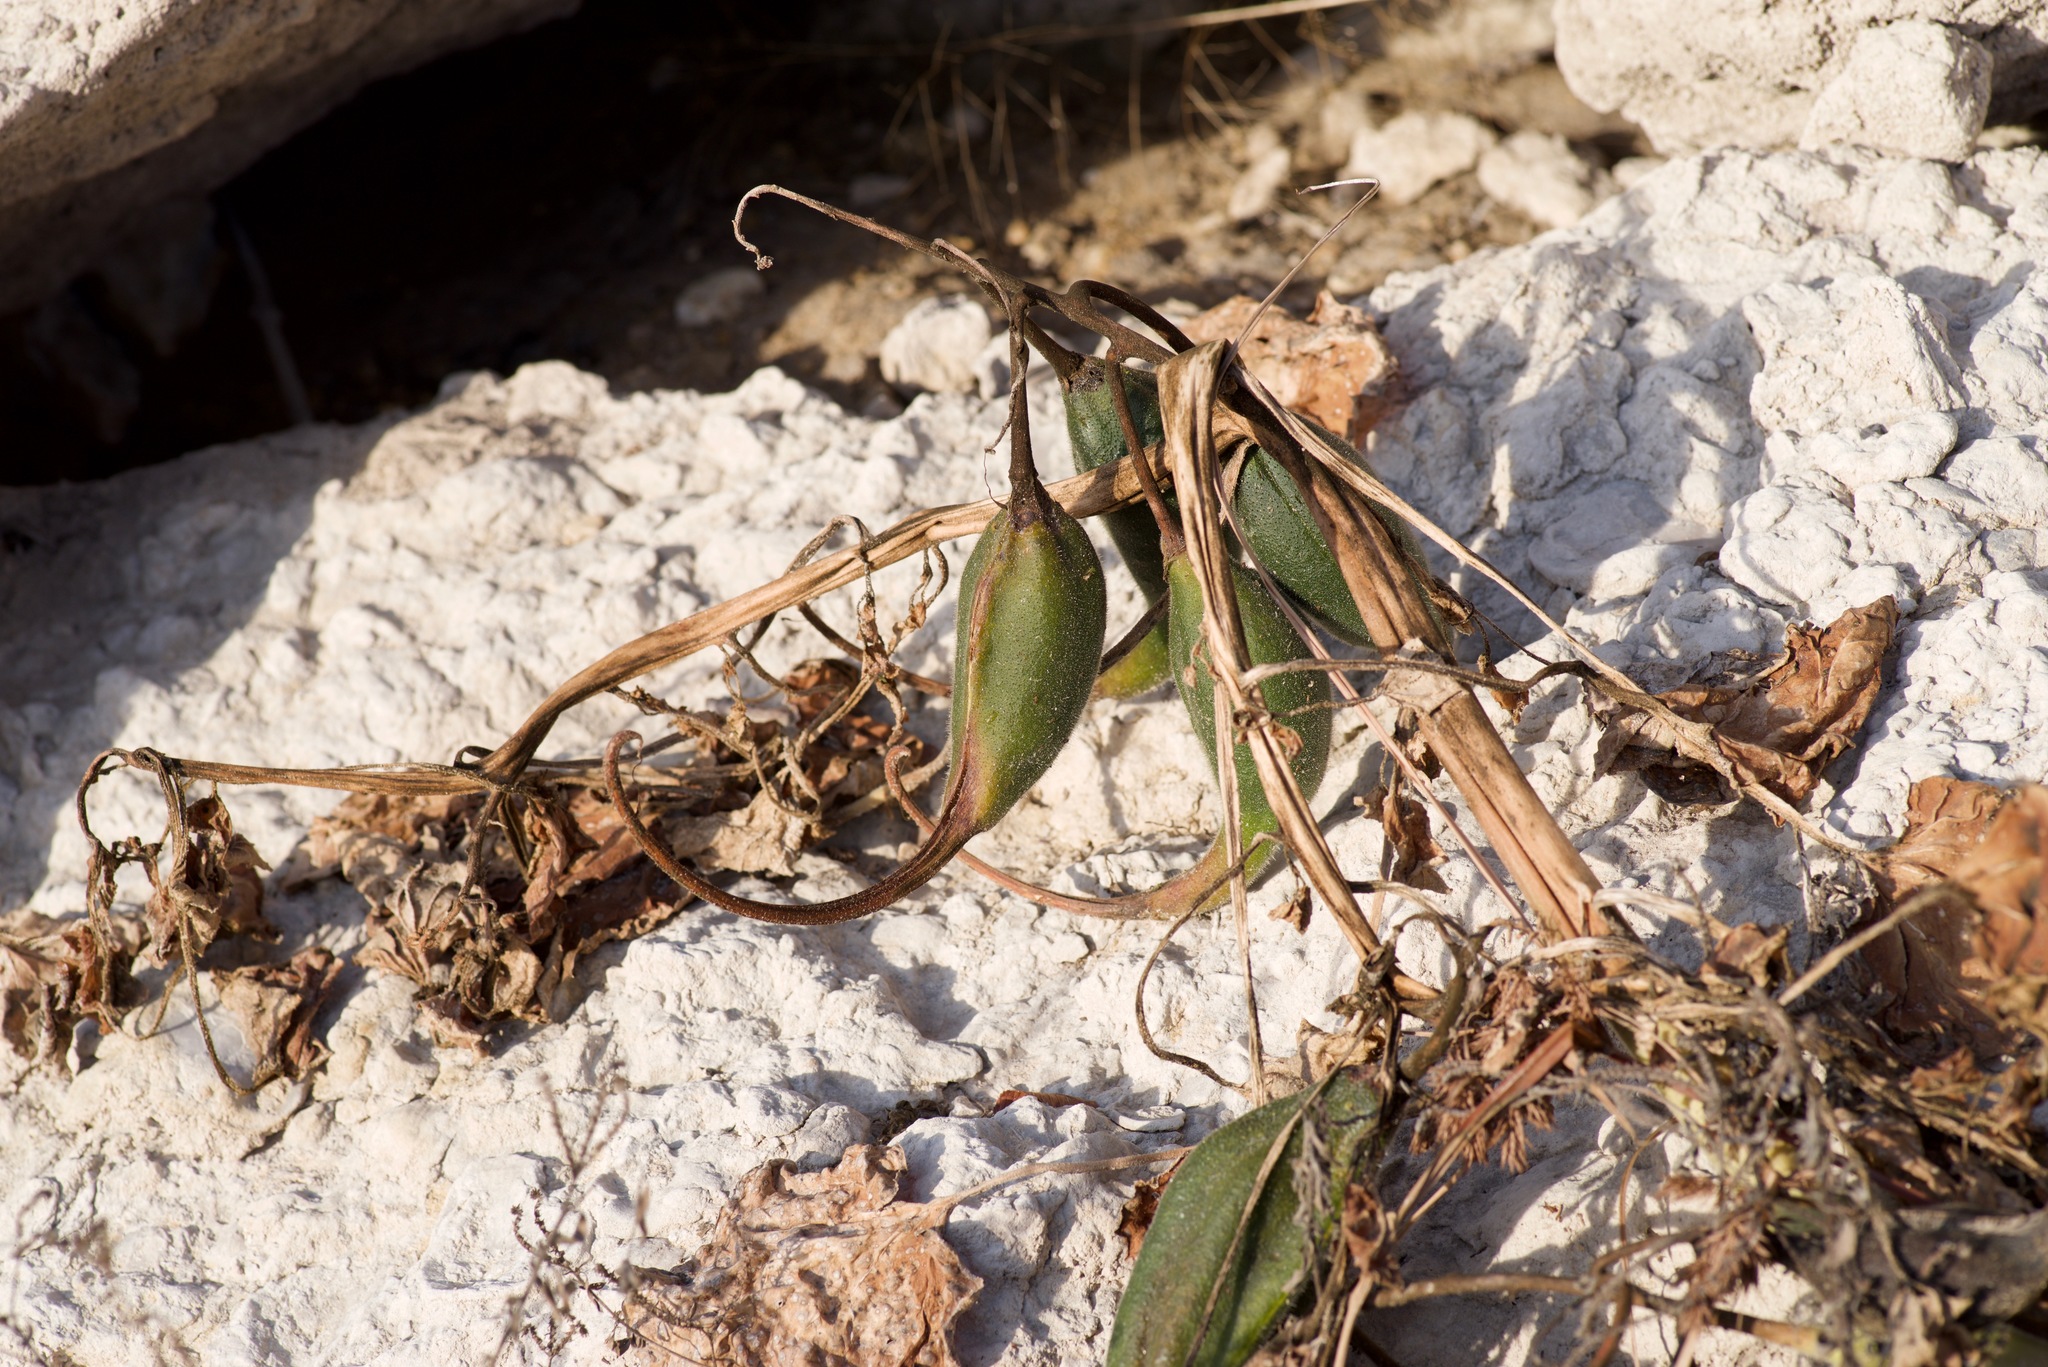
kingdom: Plantae
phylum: Tracheophyta
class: Magnoliopsida
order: Lamiales
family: Martyniaceae
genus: Proboscidea
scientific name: Proboscidea louisianica
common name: Elephant tusks
